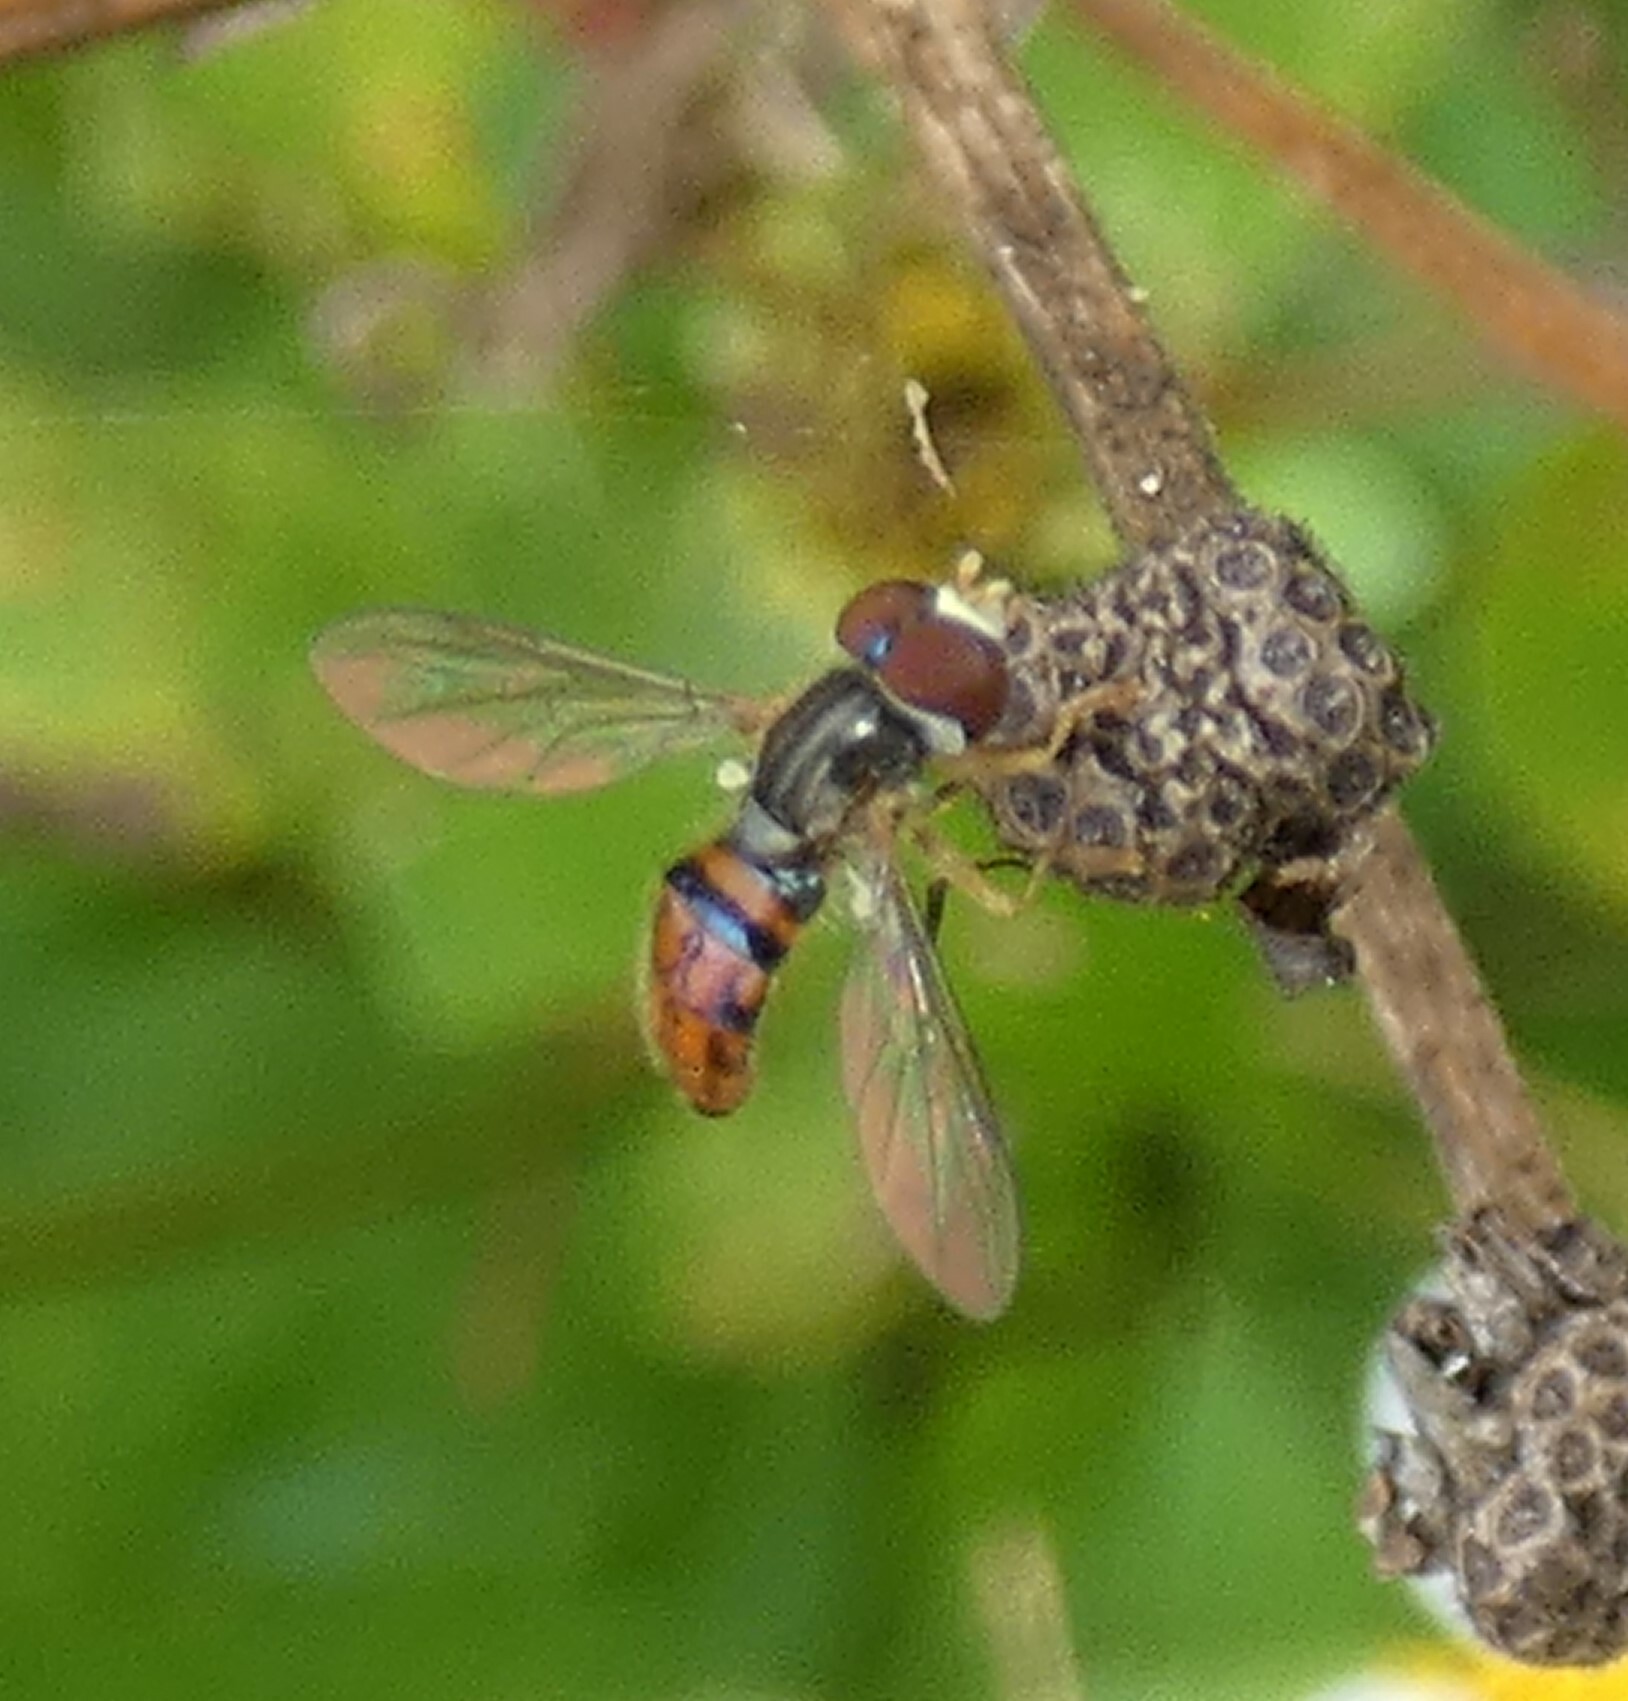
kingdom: Animalia
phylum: Arthropoda
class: Insecta
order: Diptera
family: Syrphidae
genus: Toxomerus
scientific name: Toxomerus boscii
